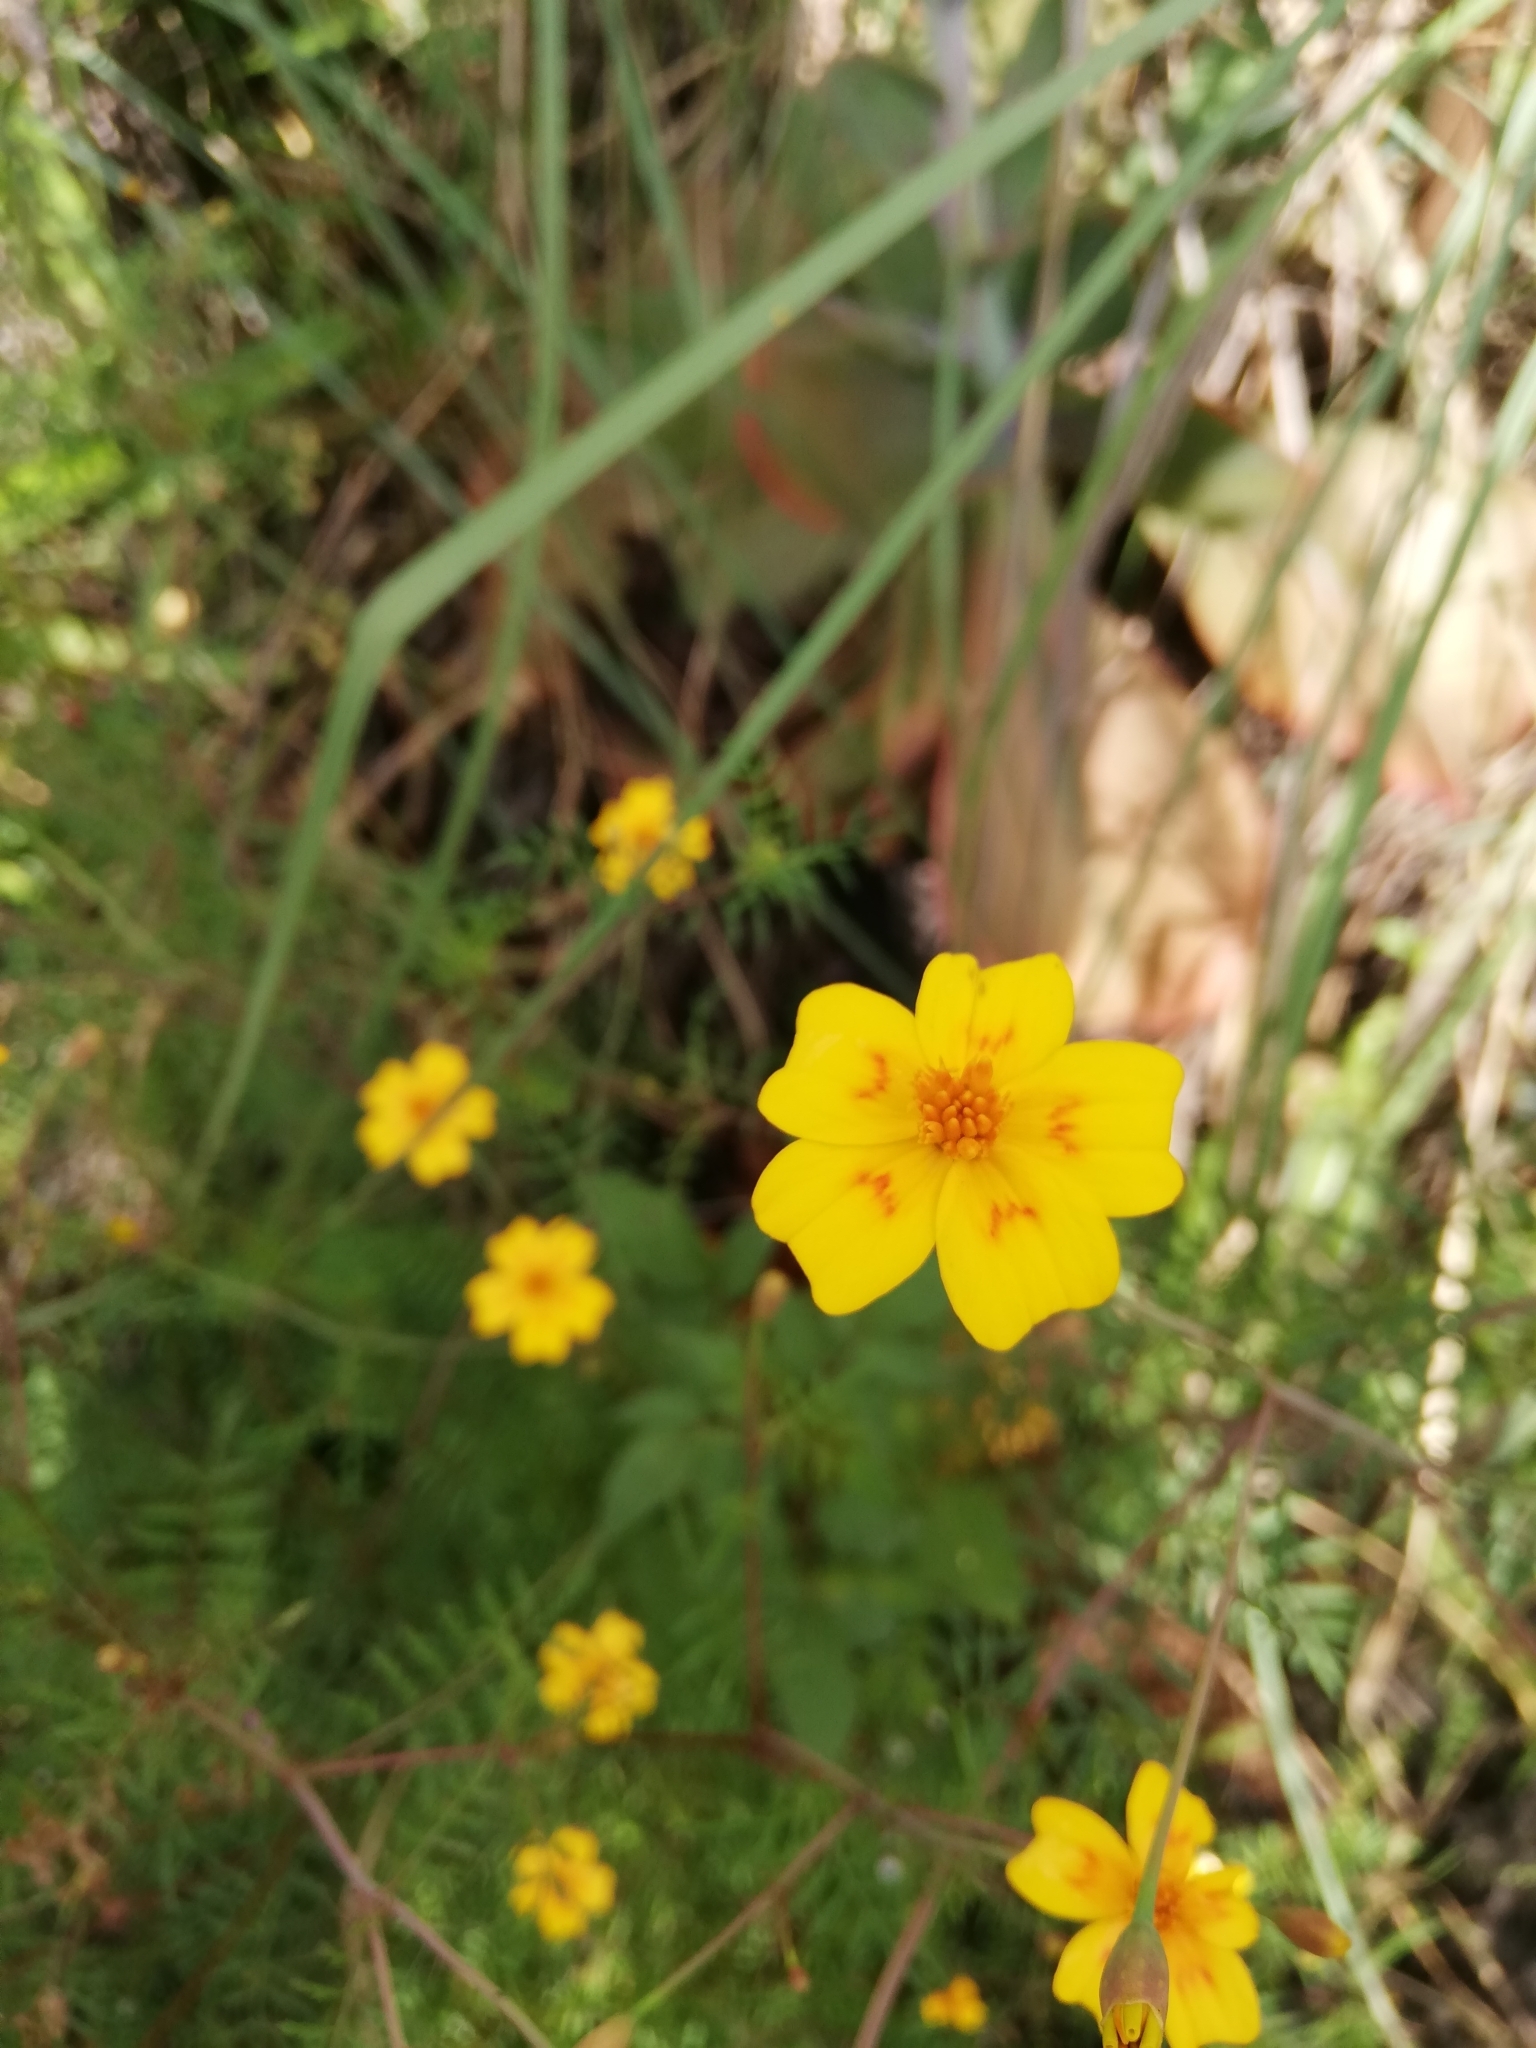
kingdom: Plantae
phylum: Tracheophyta
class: Magnoliopsida
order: Asterales
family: Asteraceae
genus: Tagetes
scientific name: Tagetes lunulata
